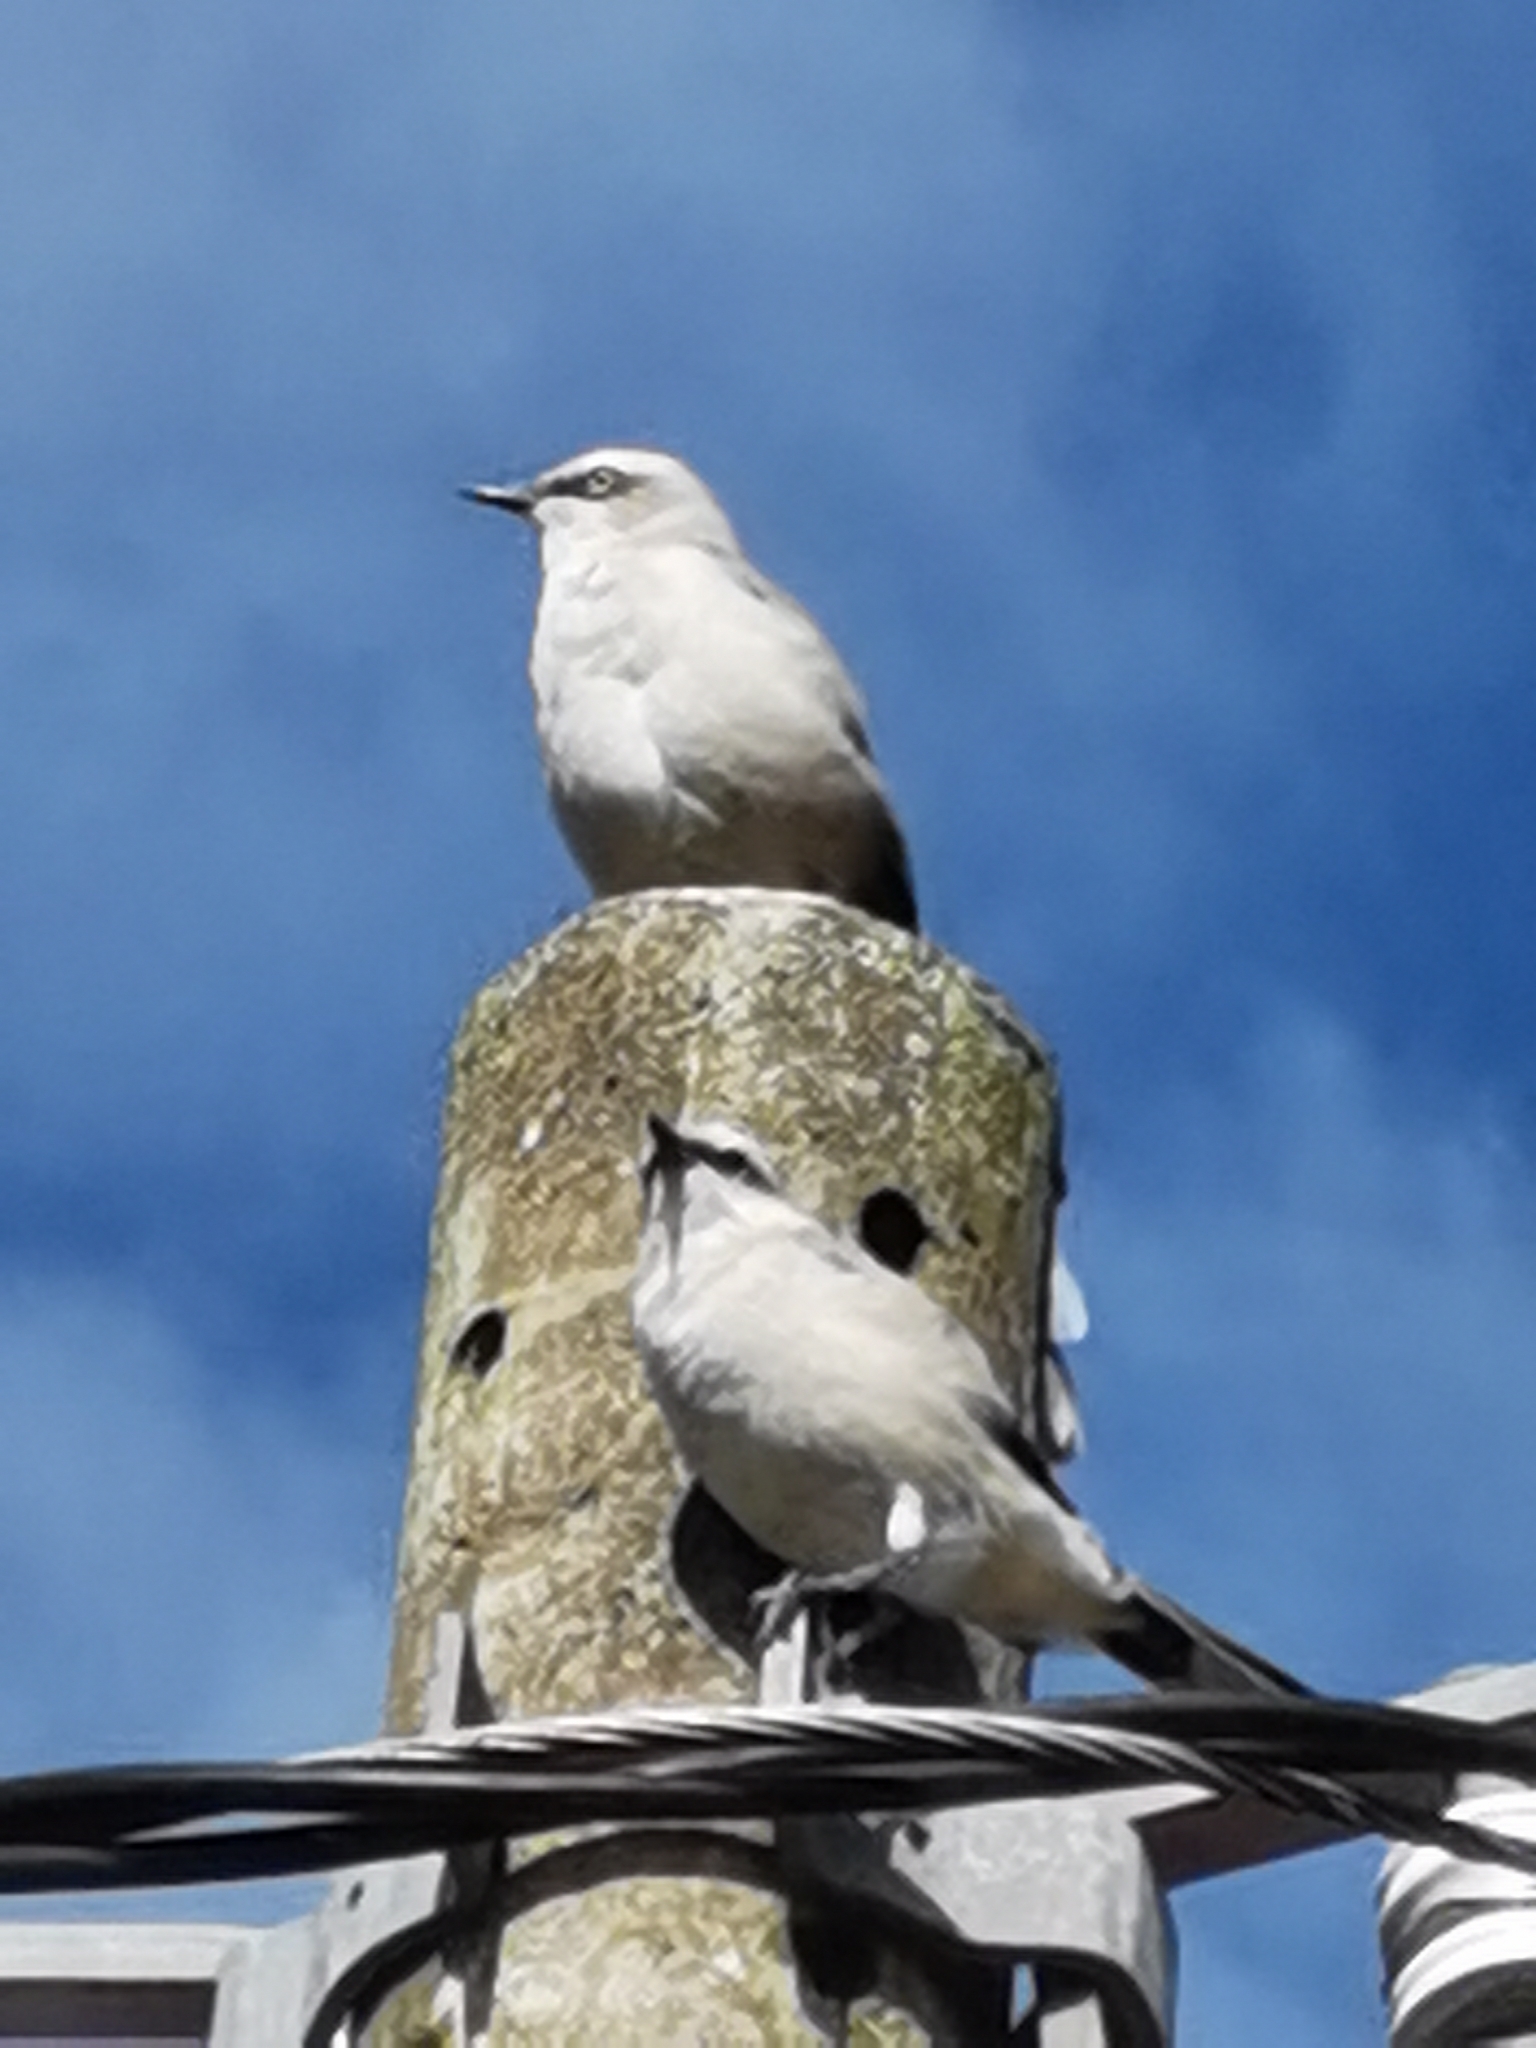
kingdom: Animalia
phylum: Chordata
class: Aves
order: Passeriformes
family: Mimidae
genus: Mimus
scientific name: Mimus gilvus
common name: Tropical mockingbird
